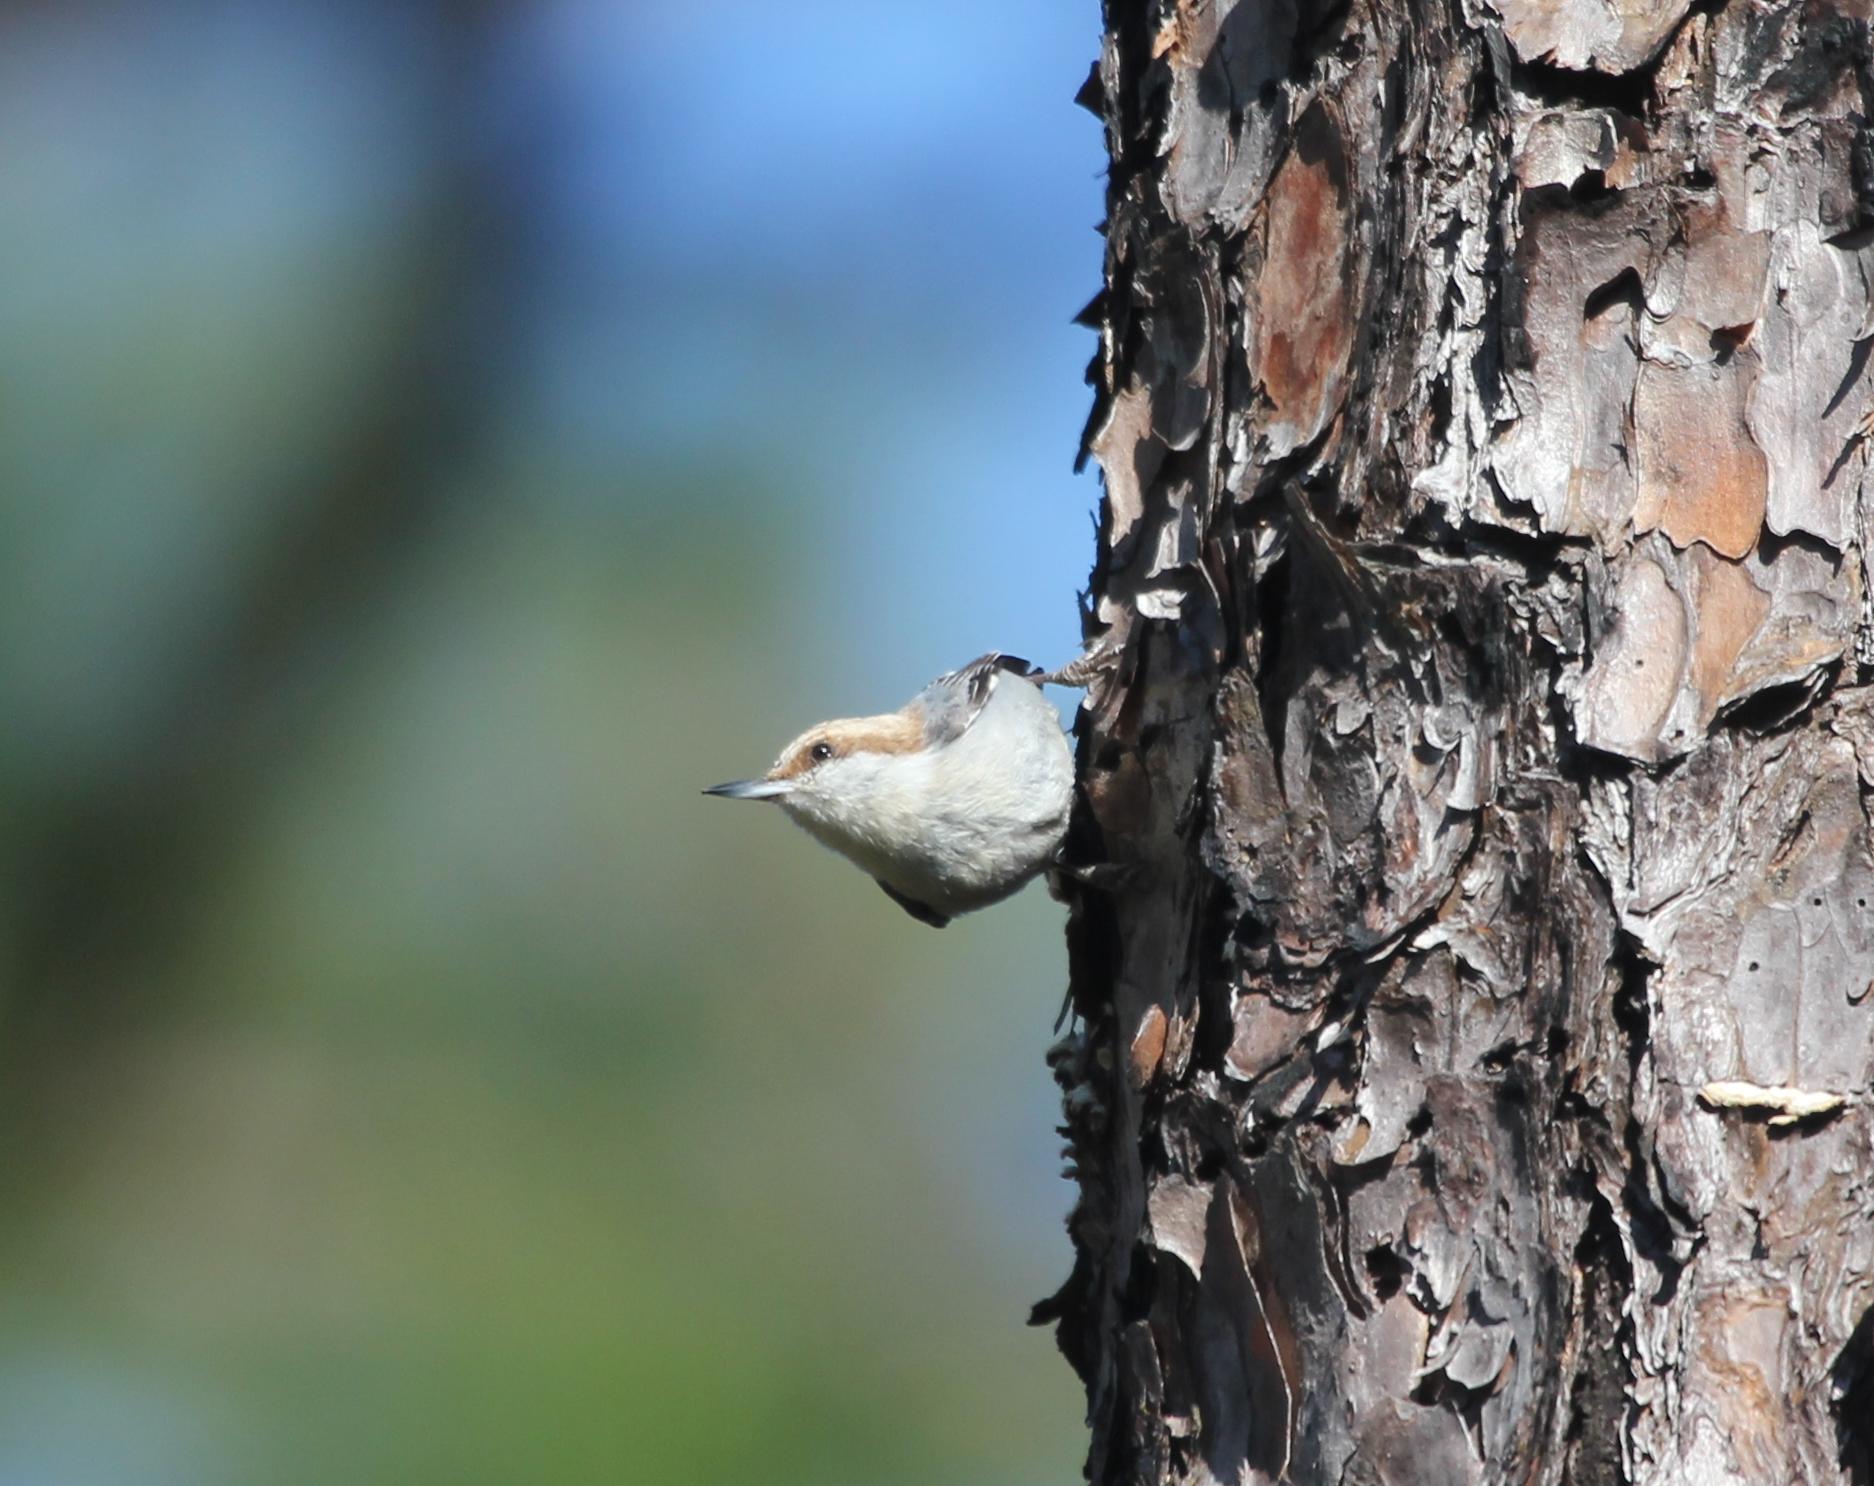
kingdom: Animalia
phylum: Chordata
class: Aves
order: Passeriformes
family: Sittidae
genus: Sitta
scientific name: Sitta pusilla
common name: Brown-headed nuthatch
